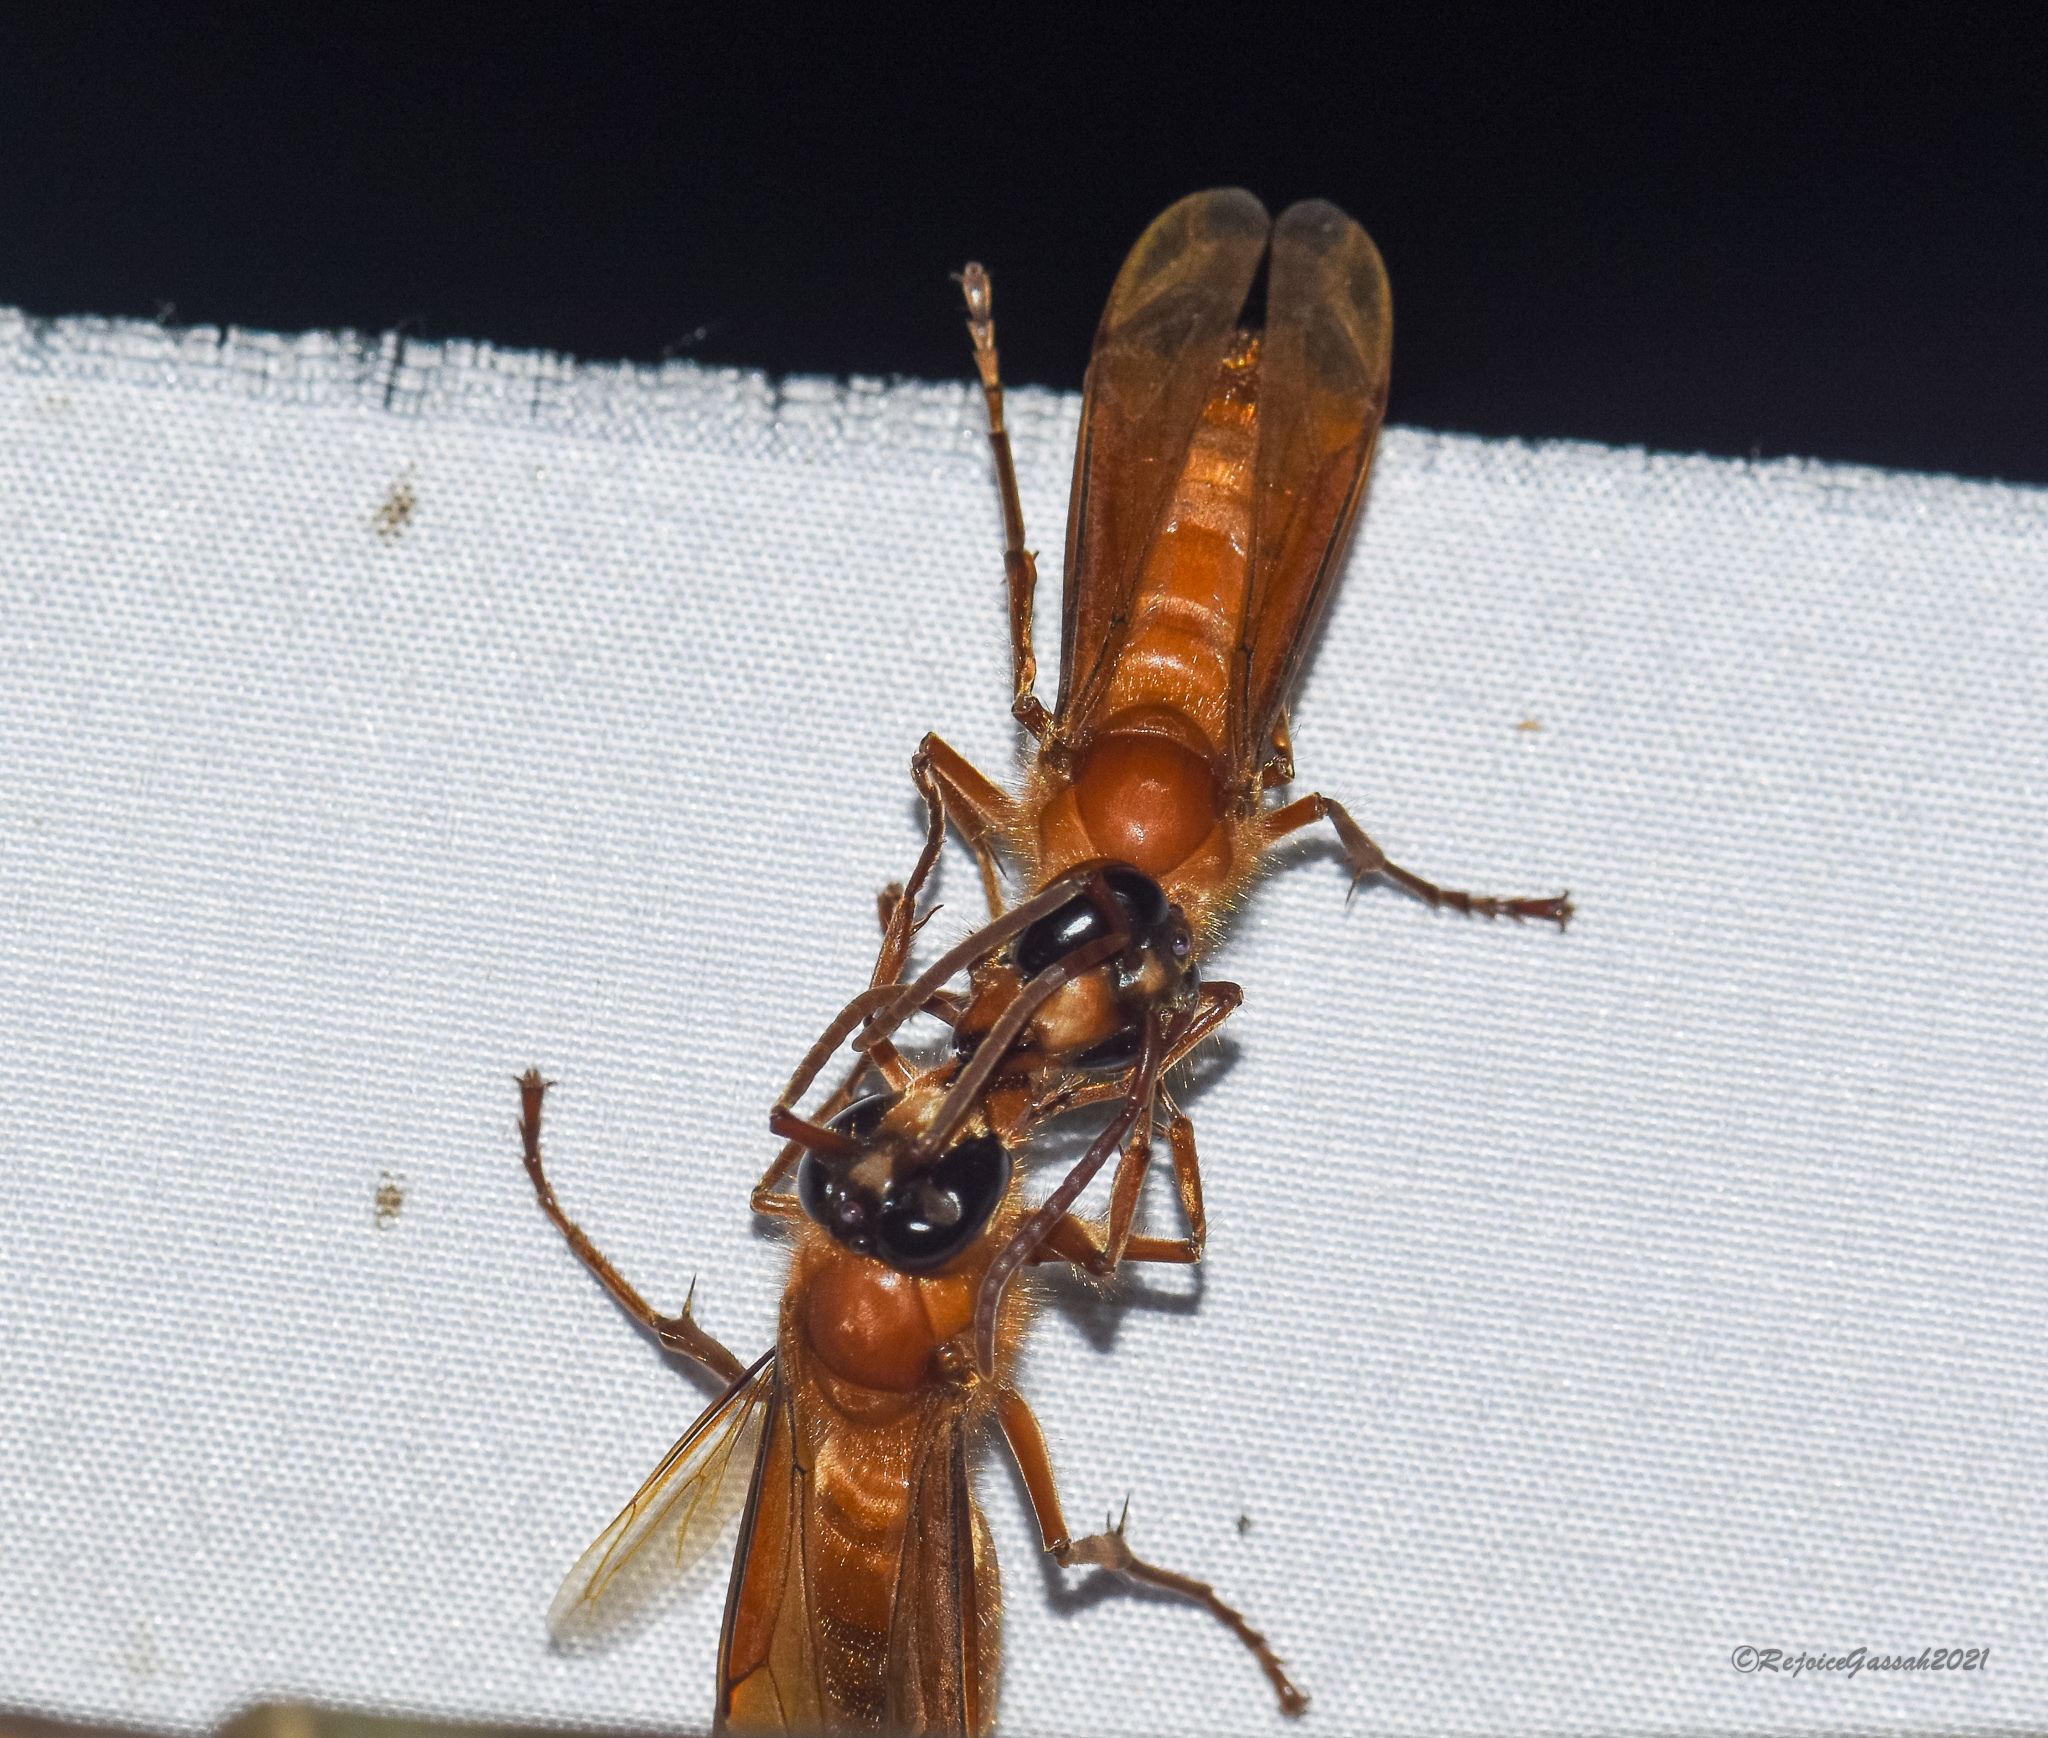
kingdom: Animalia
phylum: Arthropoda
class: Insecta
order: Hymenoptera
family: Vespidae
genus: Provespa
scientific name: Provespa barthelemyi
